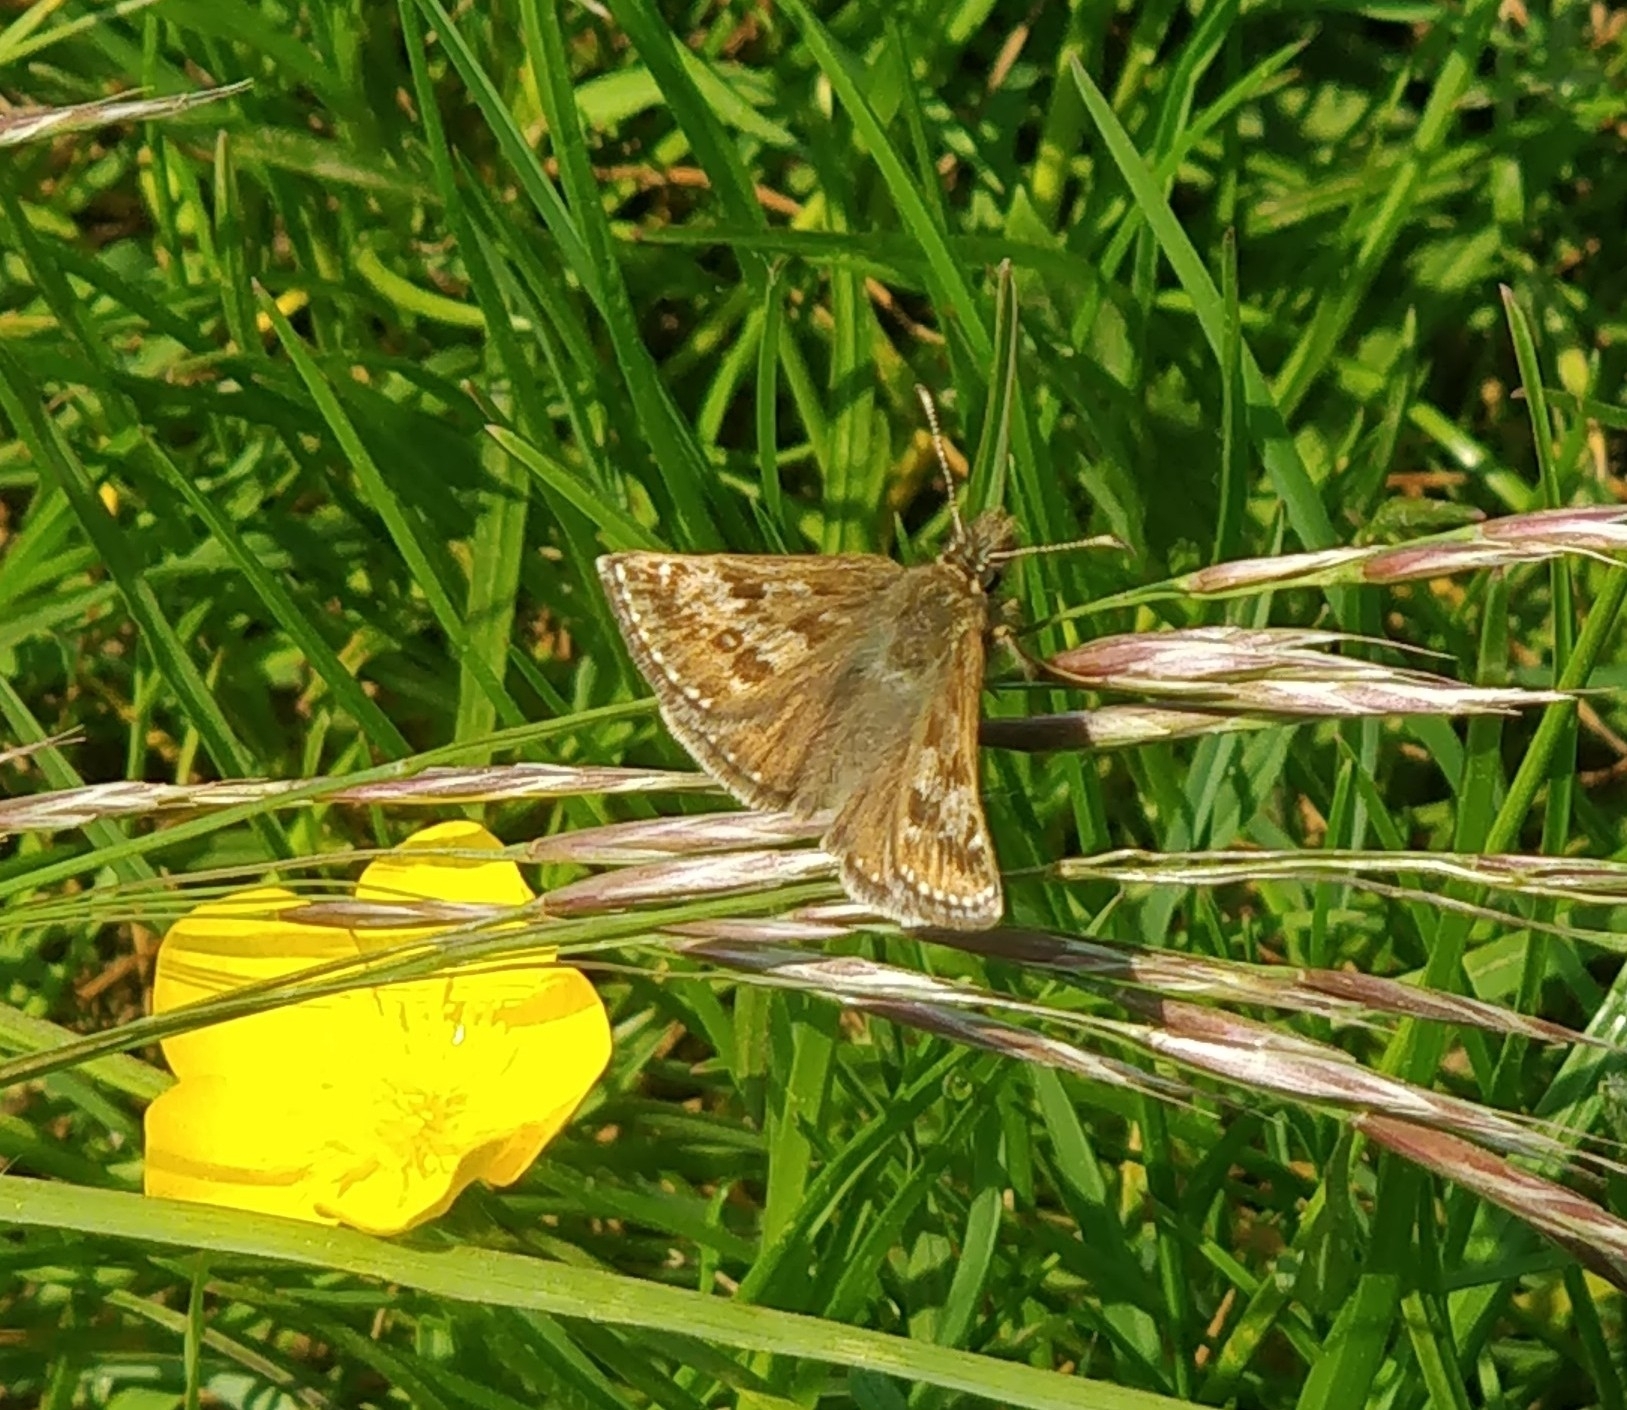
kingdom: Animalia
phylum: Arthropoda
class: Insecta
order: Lepidoptera
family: Hesperiidae
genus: Erynnis
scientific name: Erynnis tages
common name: Dingy skipper
